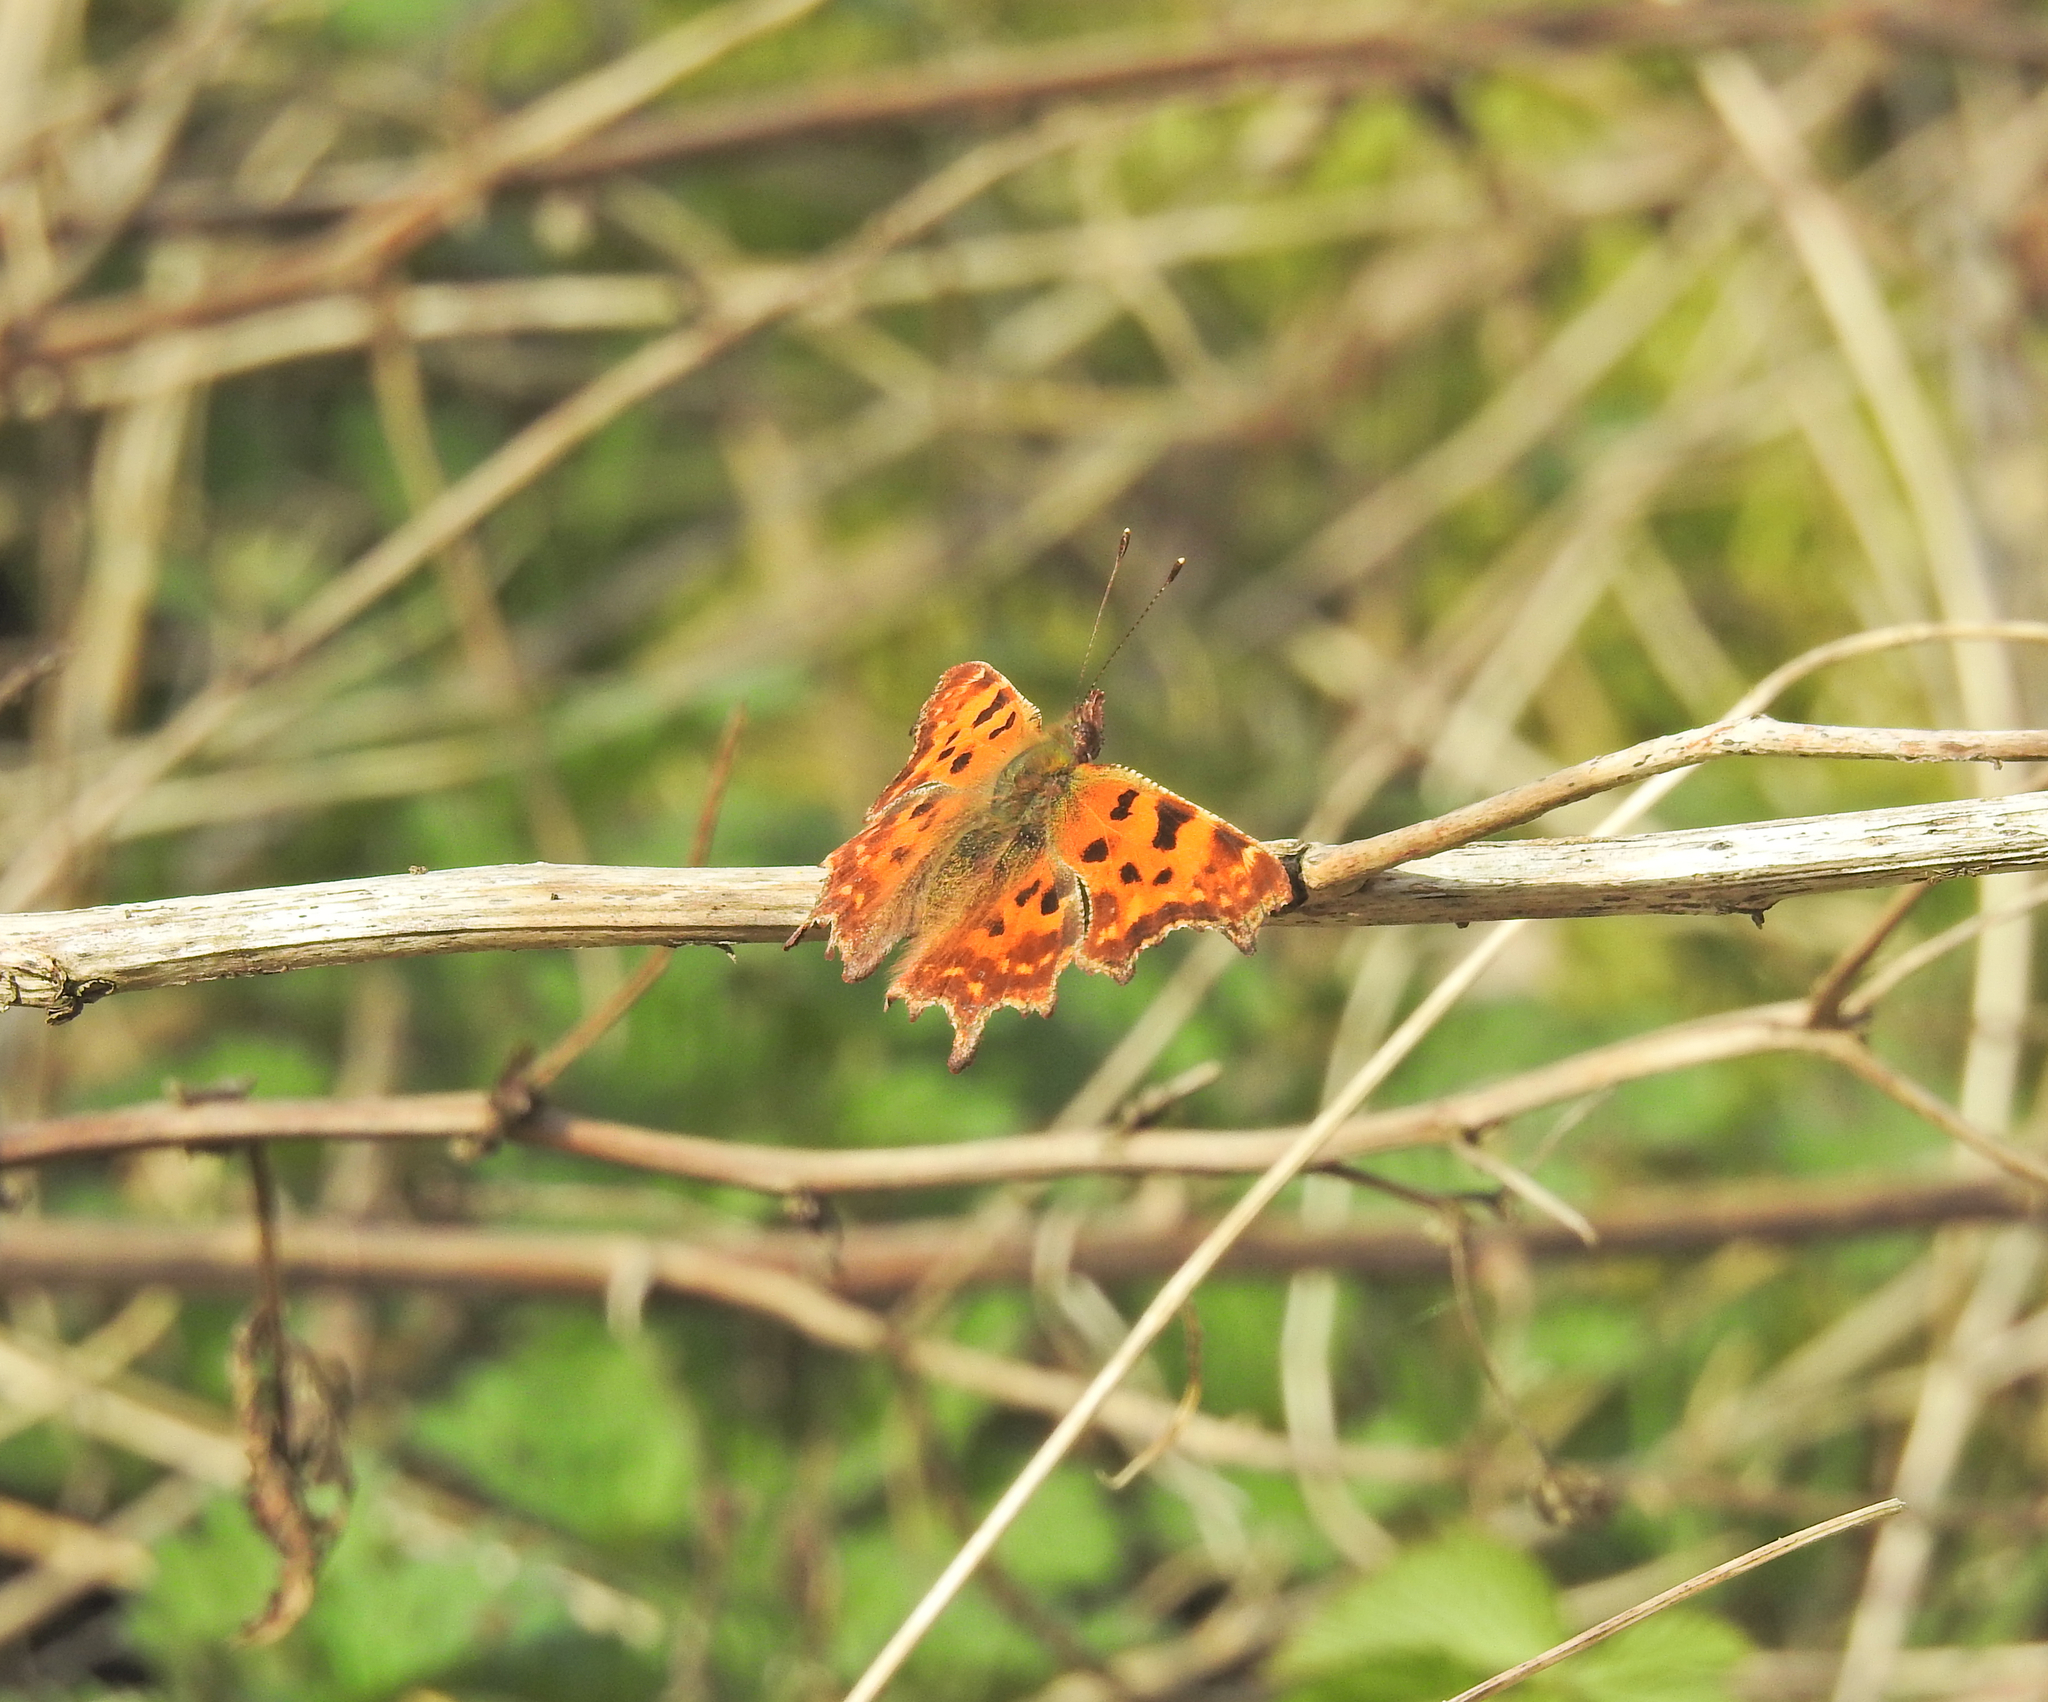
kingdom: Animalia
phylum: Arthropoda
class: Insecta
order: Lepidoptera
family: Nymphalidae
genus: Polygonia
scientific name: Polygonia c-album
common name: Comma
